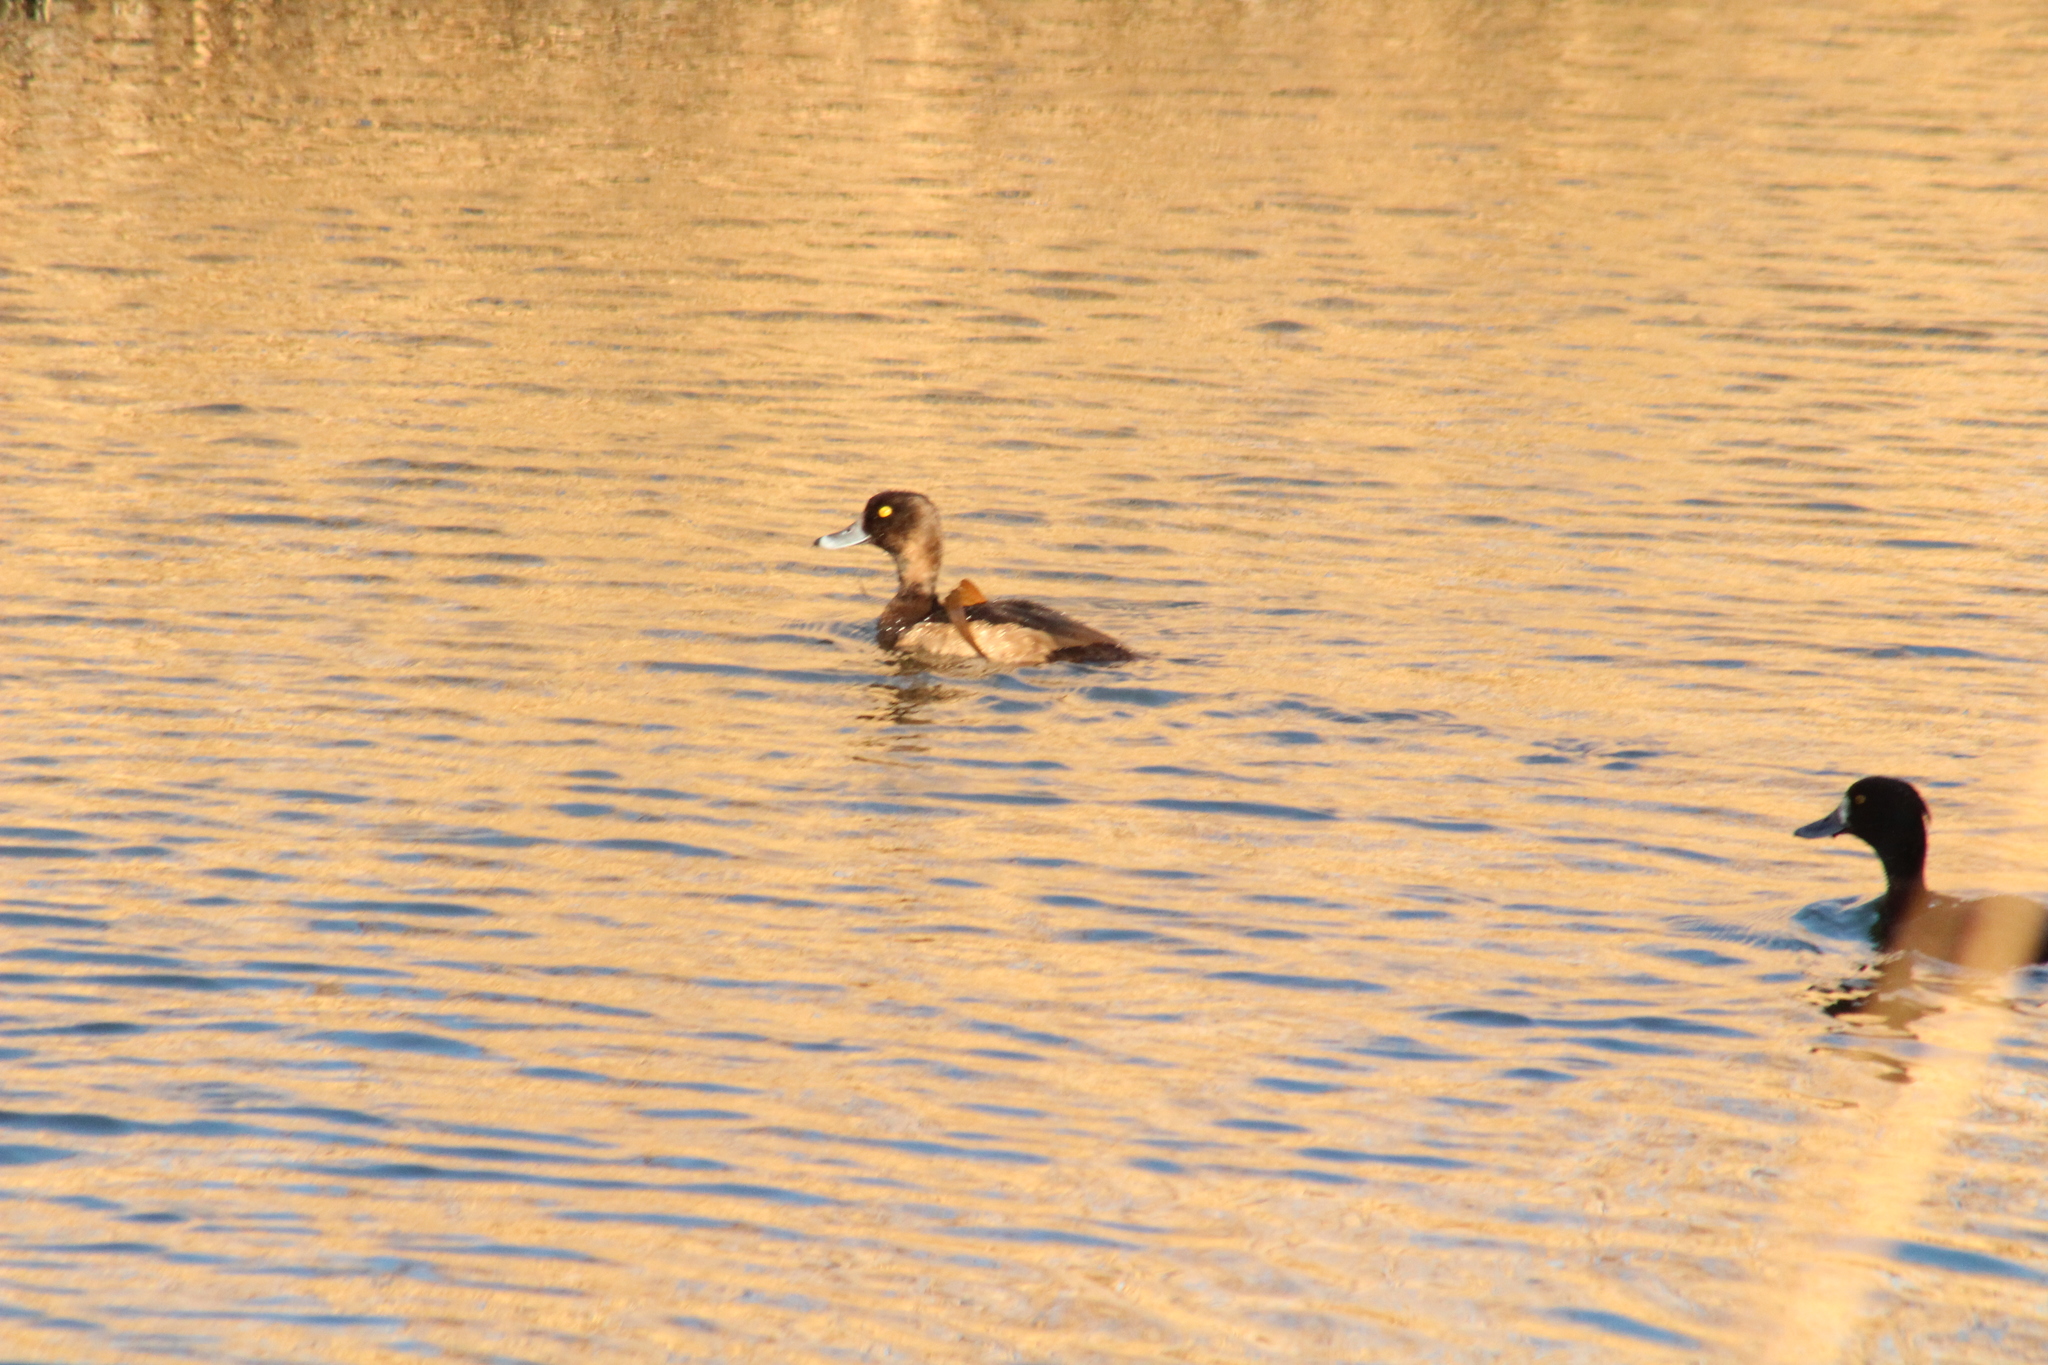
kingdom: Animalia
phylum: Chordata
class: Aves
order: Anseriformes
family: Anatidae
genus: Aythya
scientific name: Aythya fuligula
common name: Tufted duck
